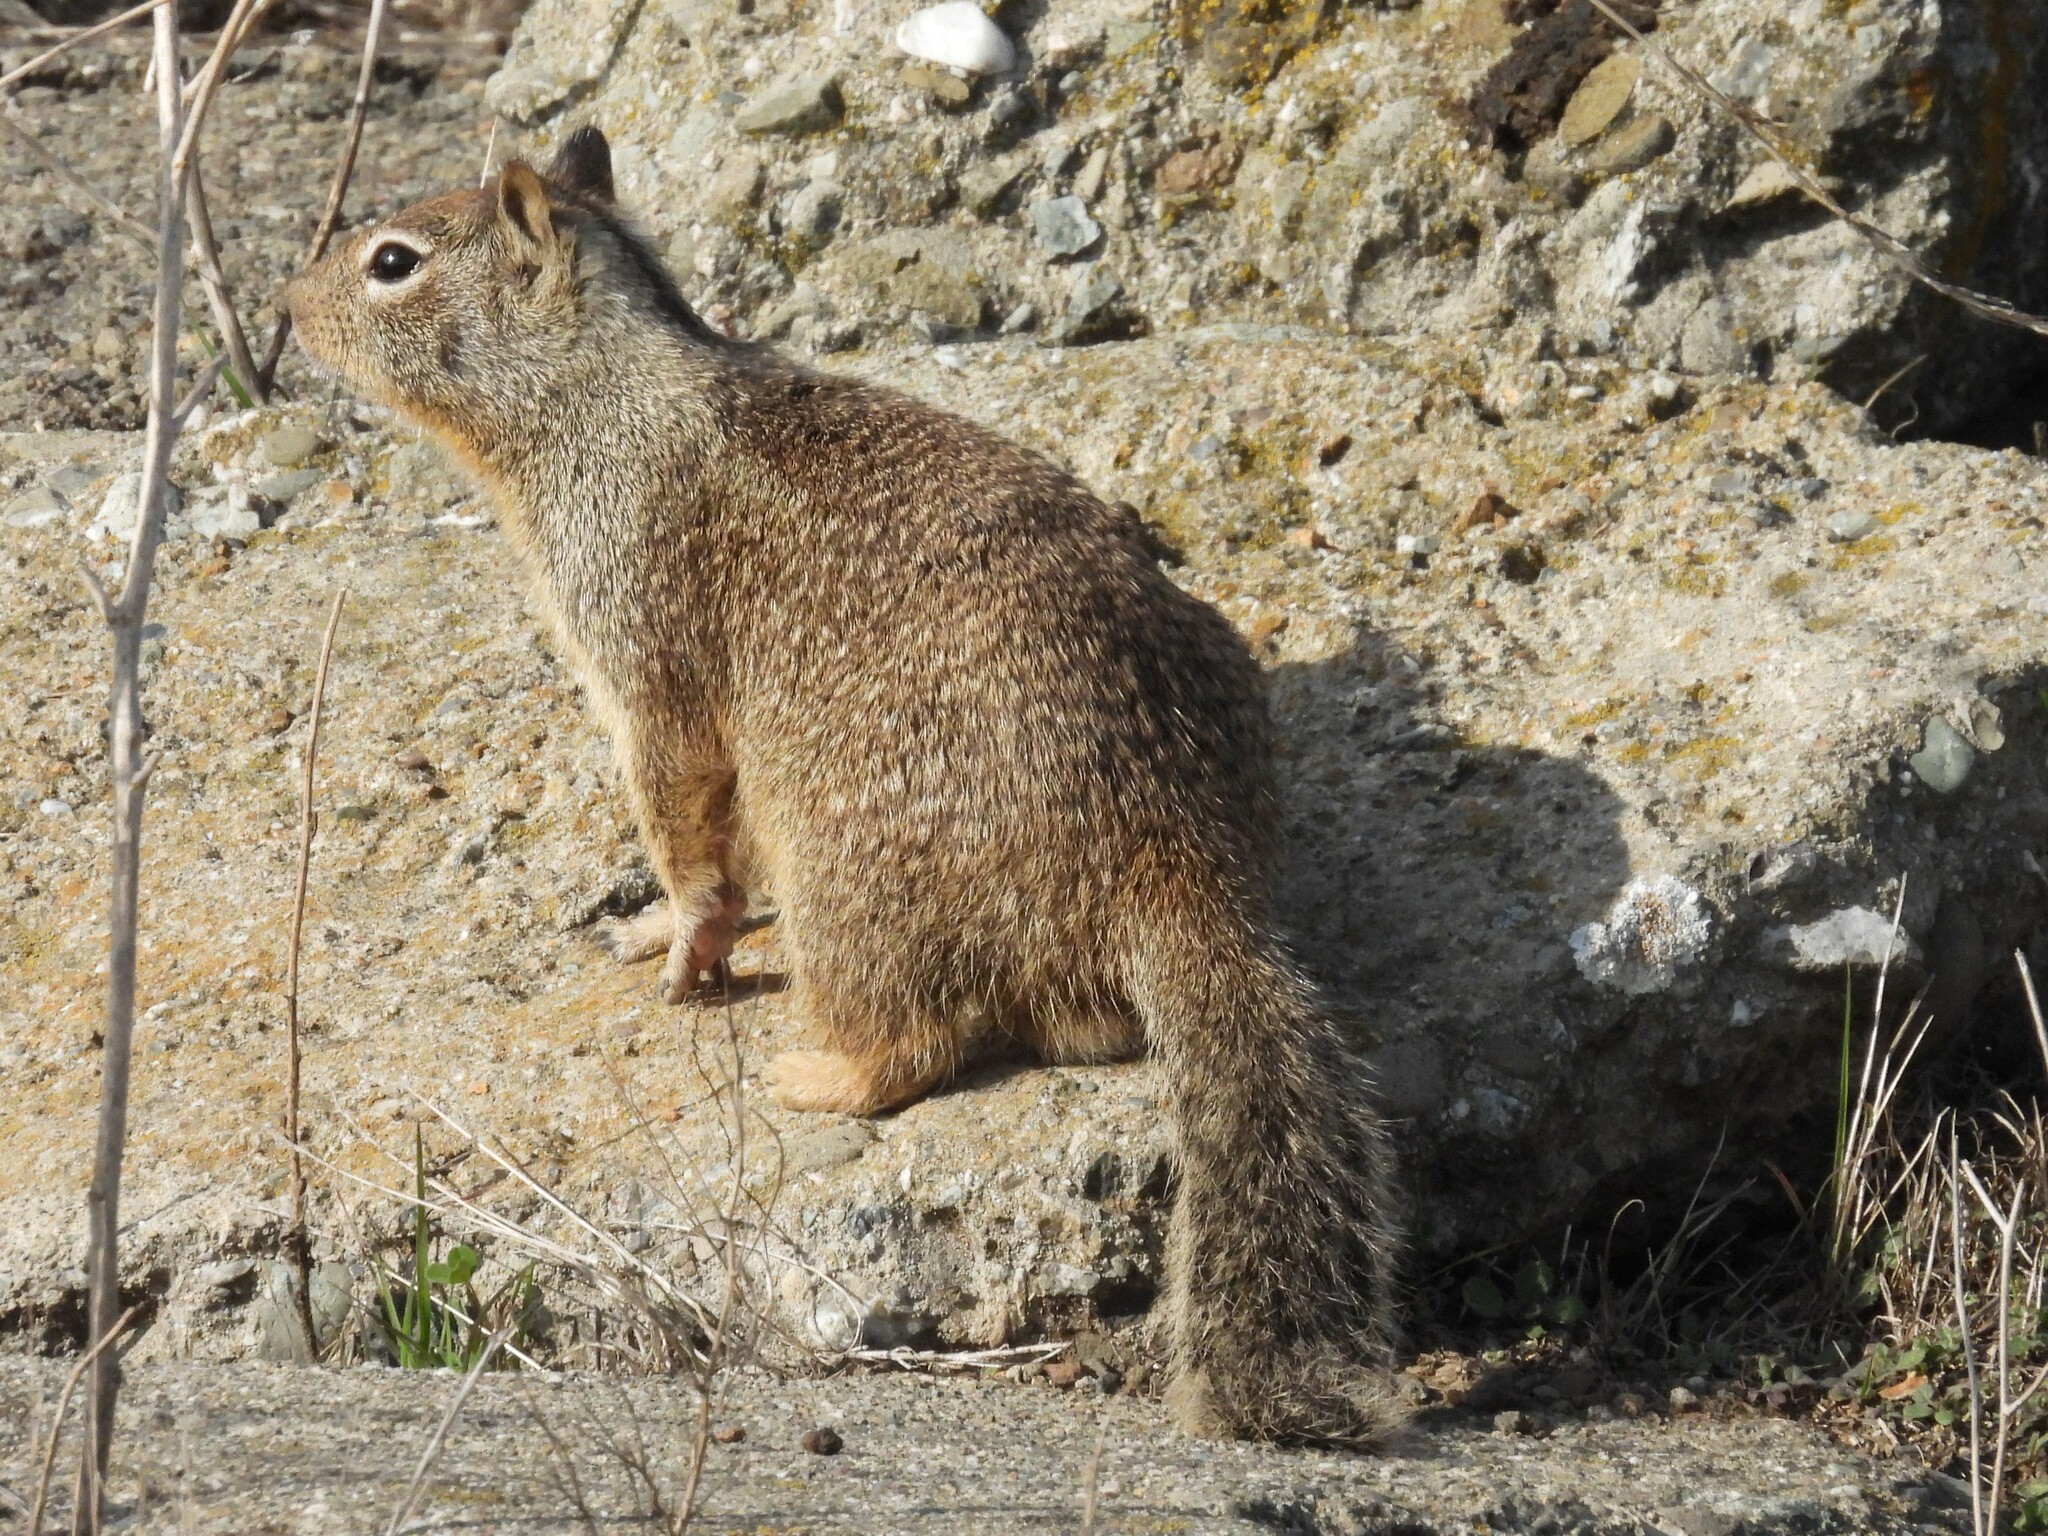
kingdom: Animalia
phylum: Chordata
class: Mammalia
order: Rodentia
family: Sciuridae
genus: Otospermophilus
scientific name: Otospermophilus beecheyi
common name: California ground squirrel
